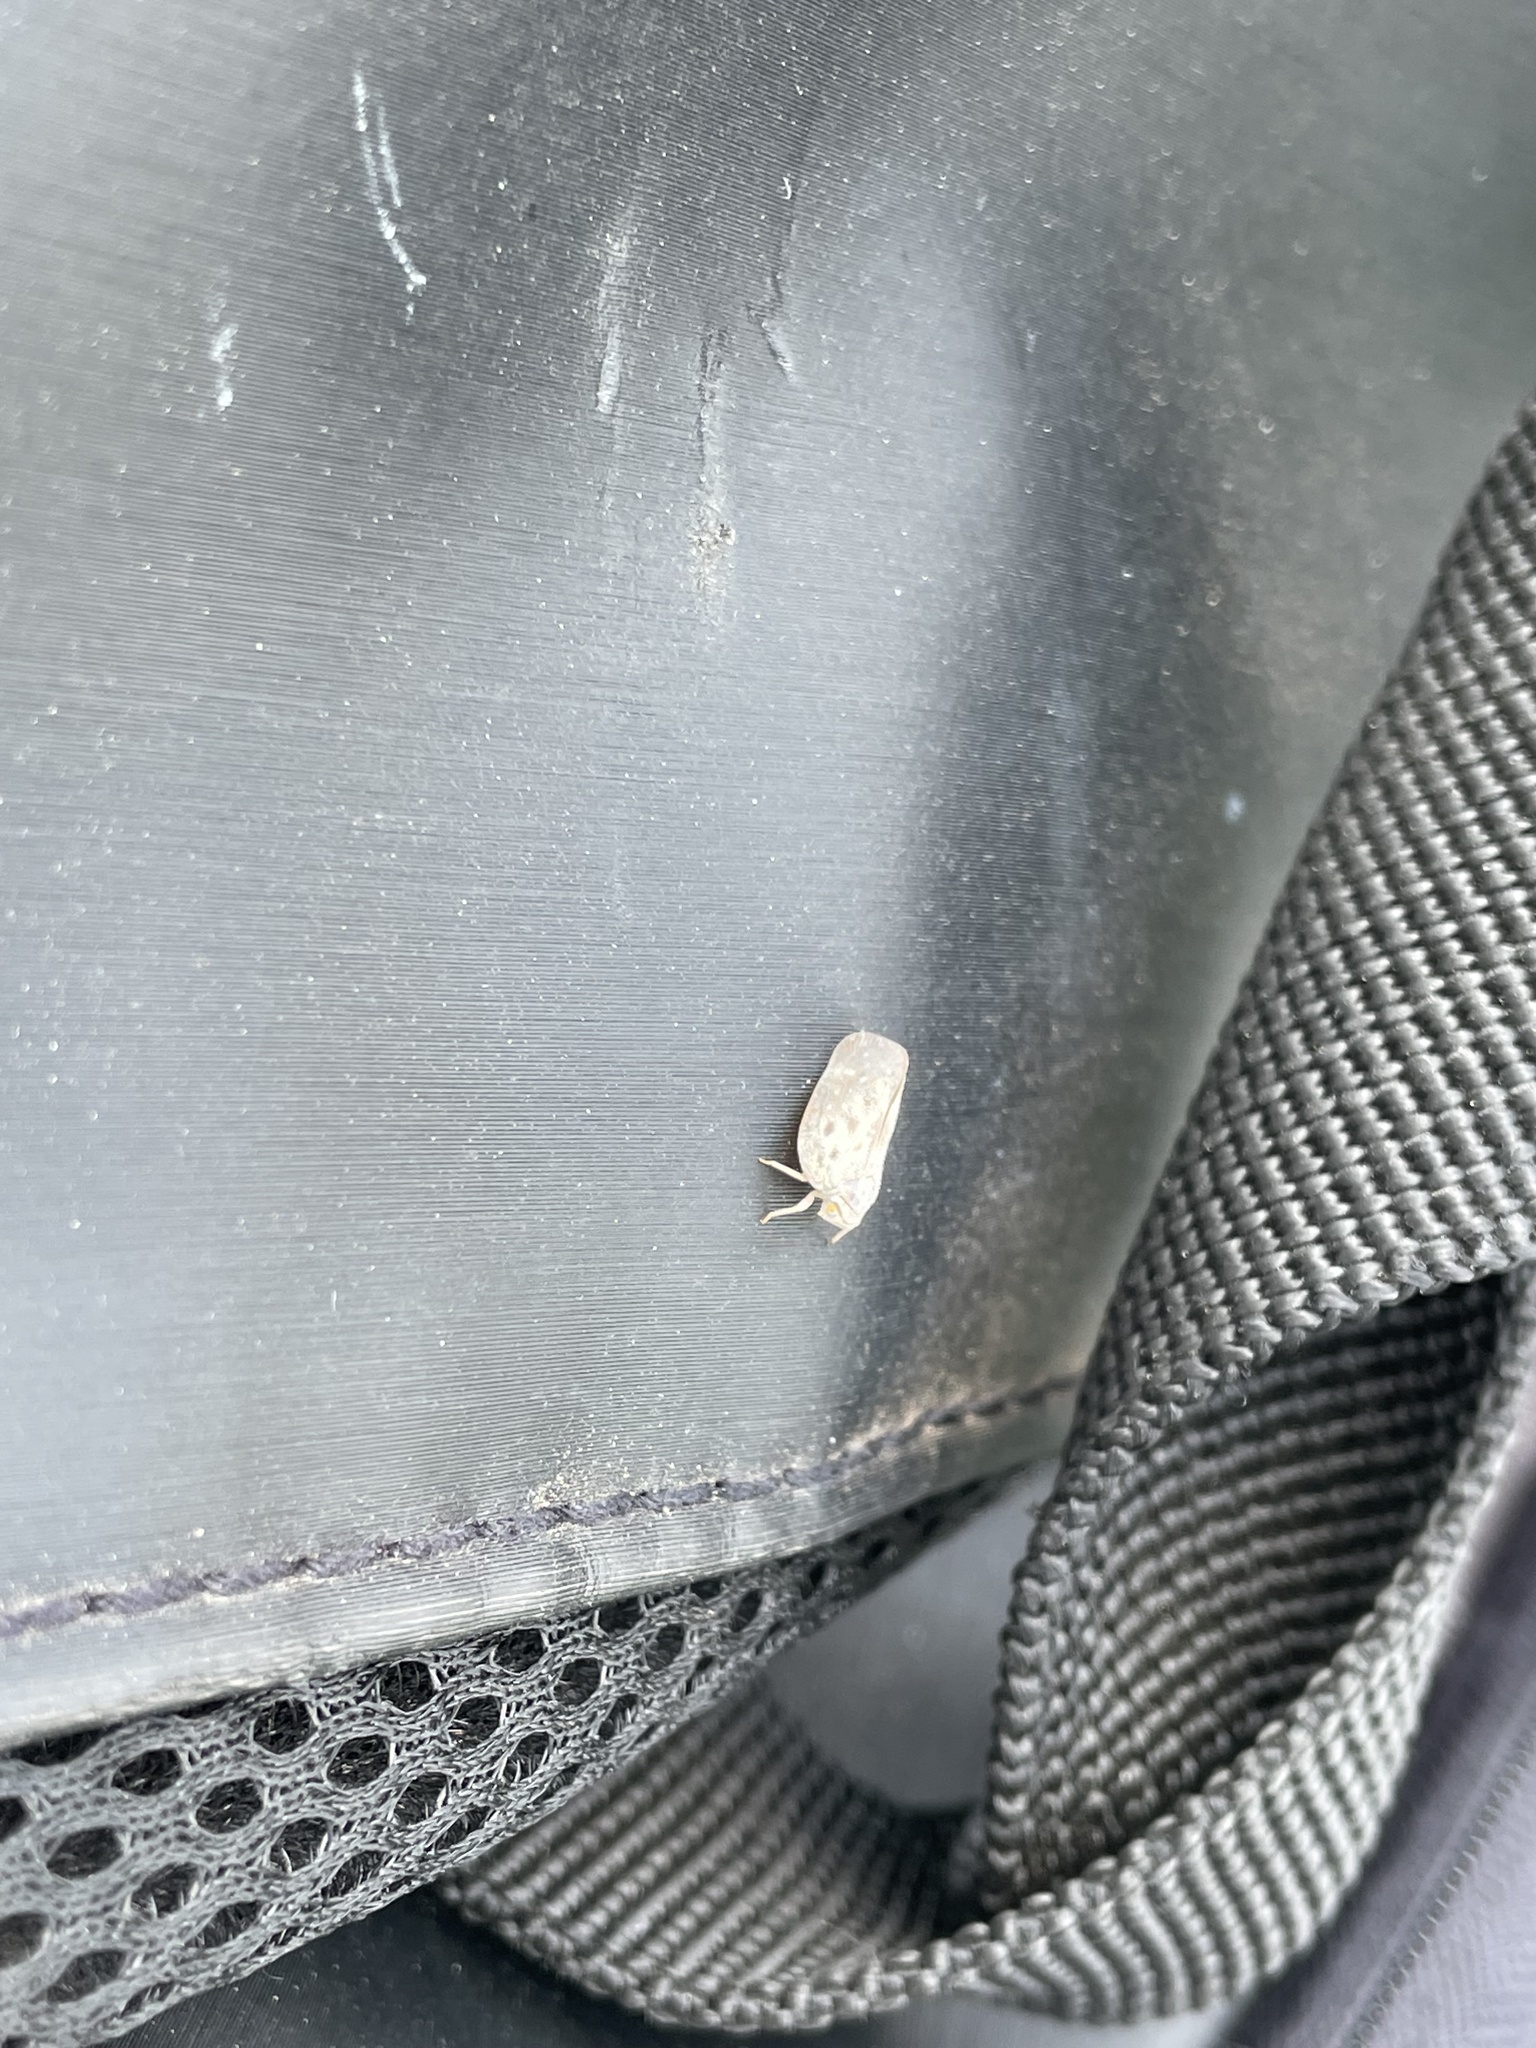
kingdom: Animalia
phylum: Arthropoda
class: Insecta
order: Hemiptera
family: Flatidae
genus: Metcalfa
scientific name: Metcalfa pruinosa
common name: Citrus flatid planthopper
